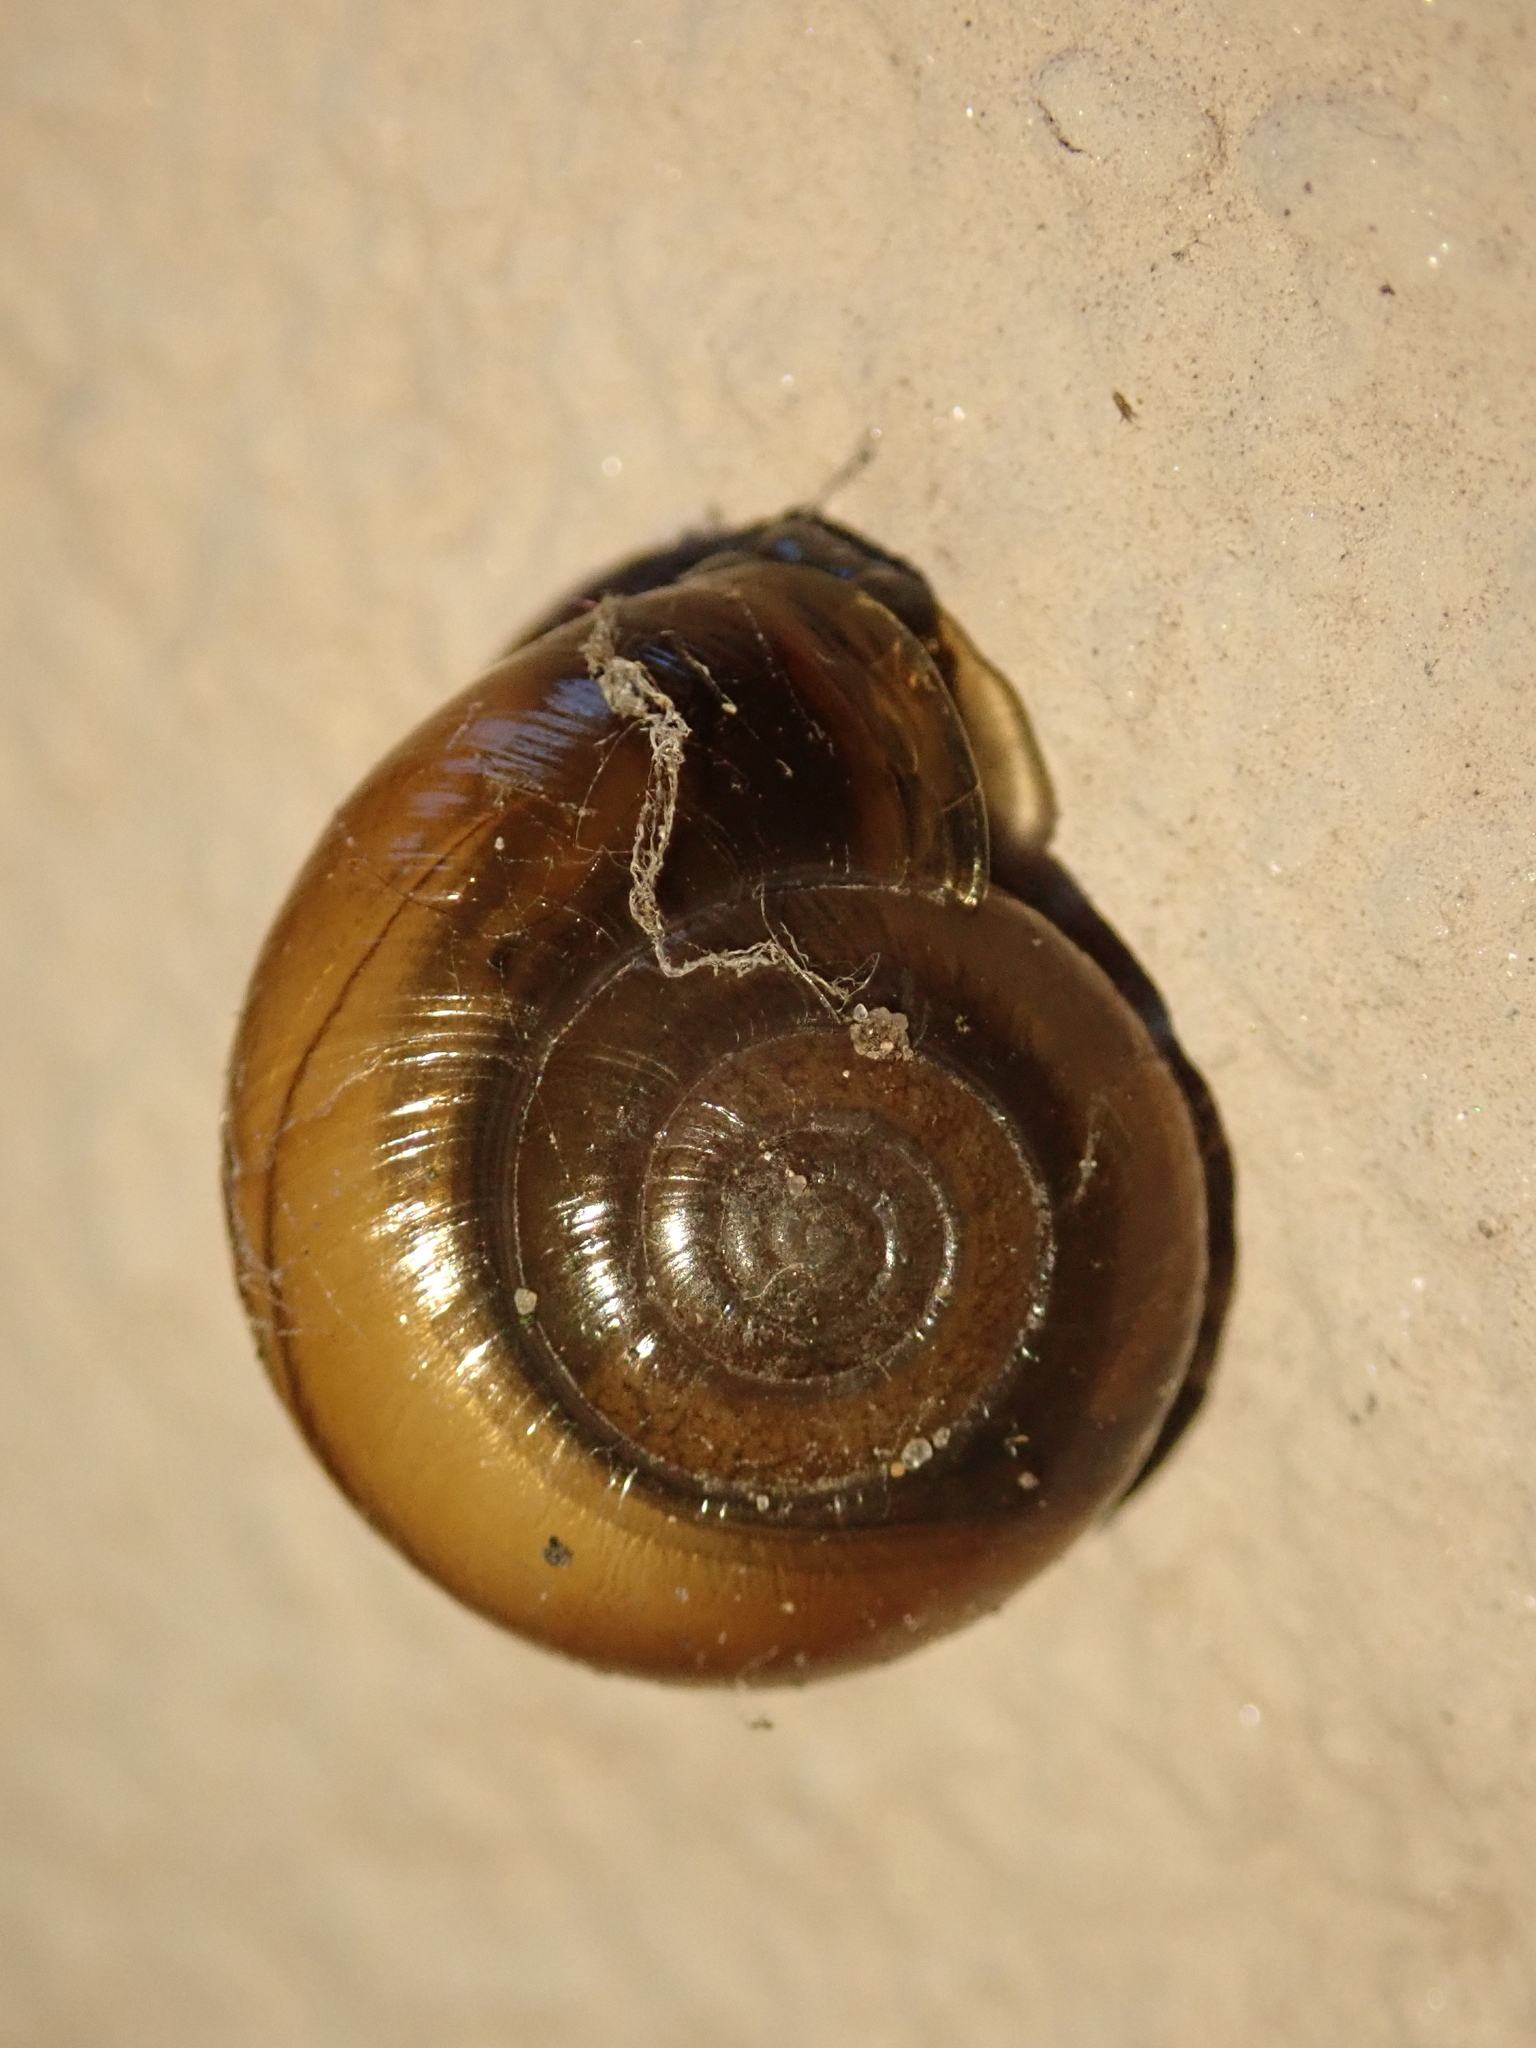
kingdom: Animalia
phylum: Mollusca
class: Gastropoda
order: Stylommatophora
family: Oxychilidae
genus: Oxychilus
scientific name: Oxychilus draparnaudi
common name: Draparnaud's glass snail
